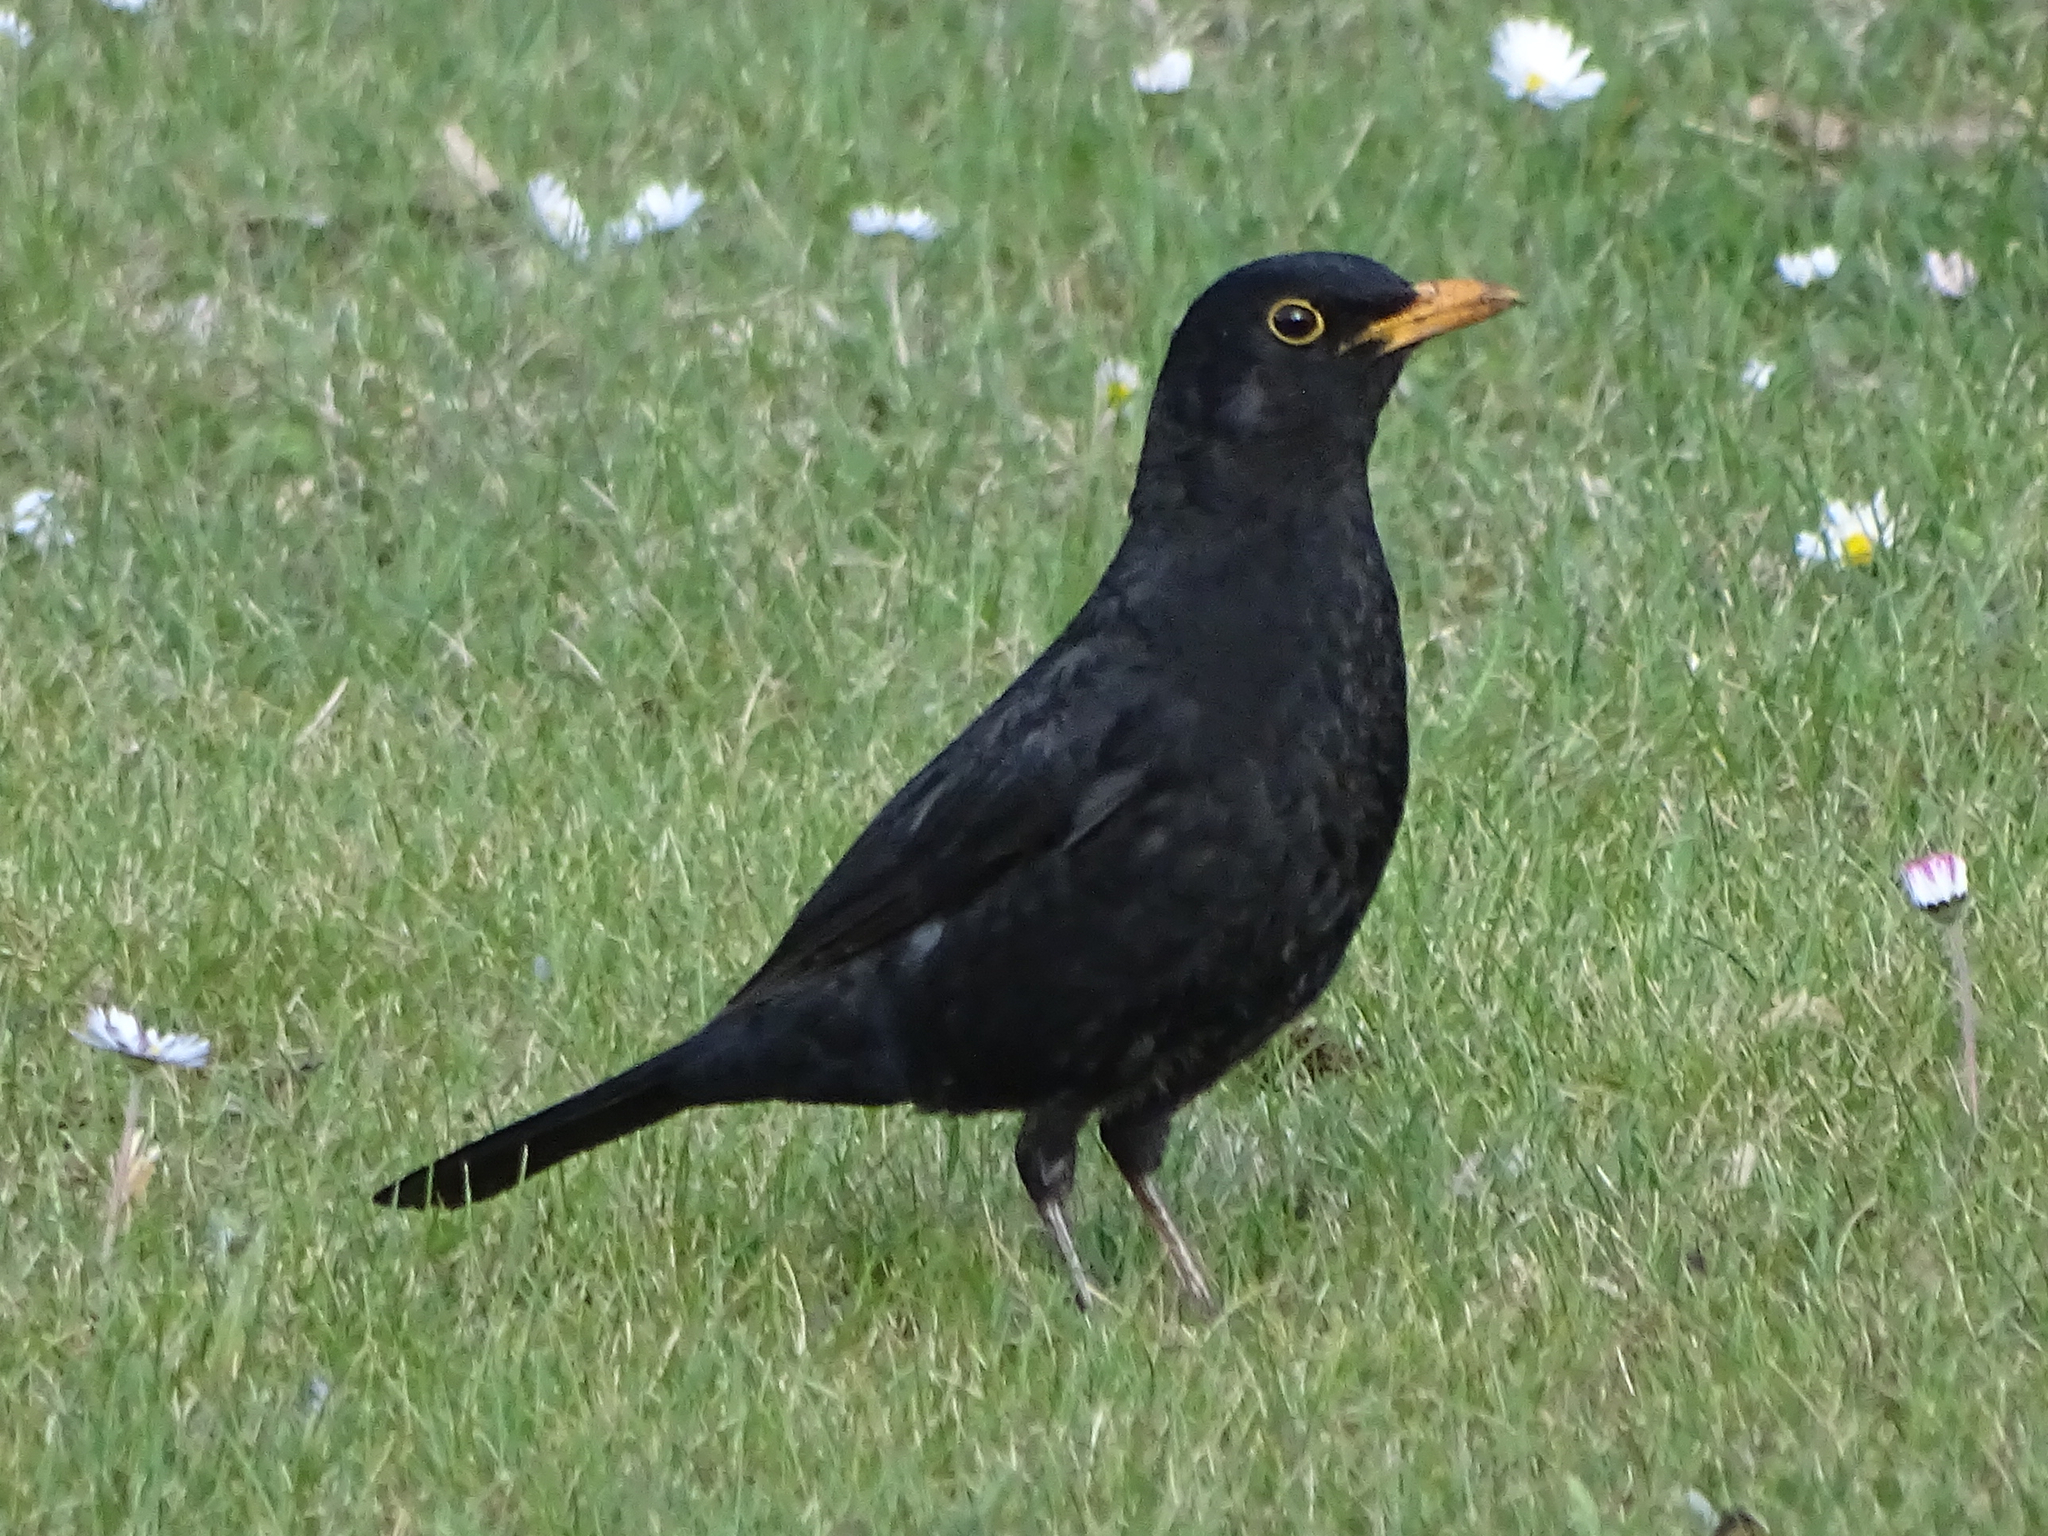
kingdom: Animalia
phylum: Chordata
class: Aves
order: Passeriformes
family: Turdidae
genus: Turdus
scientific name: Turdus merula
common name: Common blackbird
